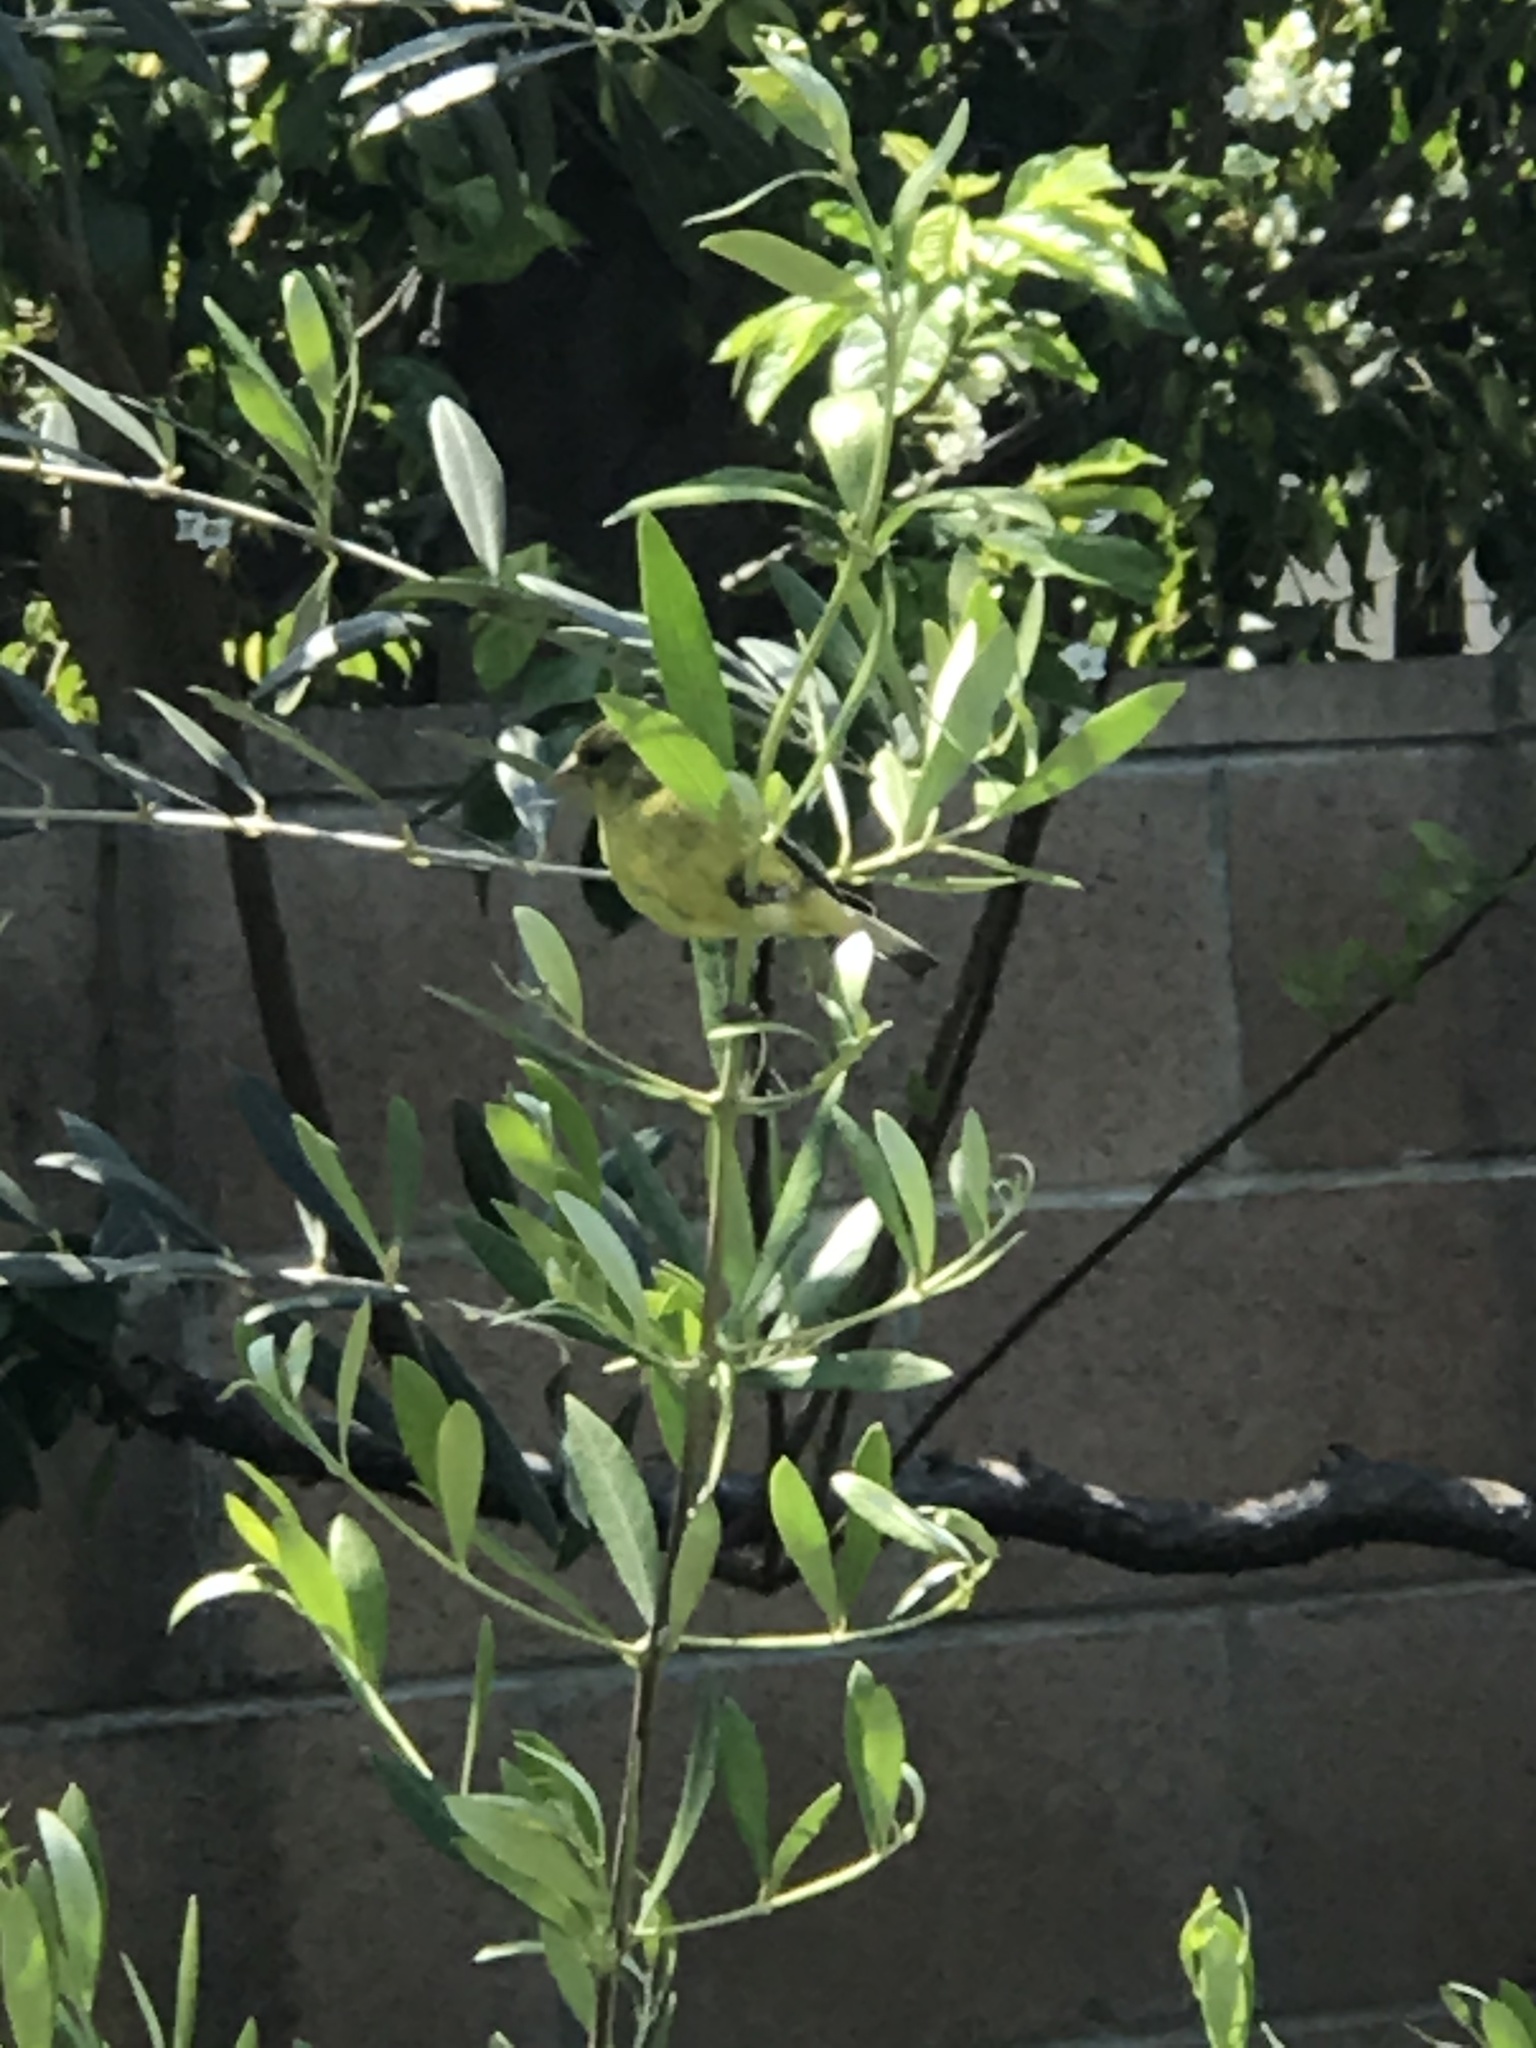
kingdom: Animalia
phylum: Chordata
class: Aves
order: Passeriformes
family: Fringillidae
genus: Spinus
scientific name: Spinus psaltria
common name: Lesser goldfinch
